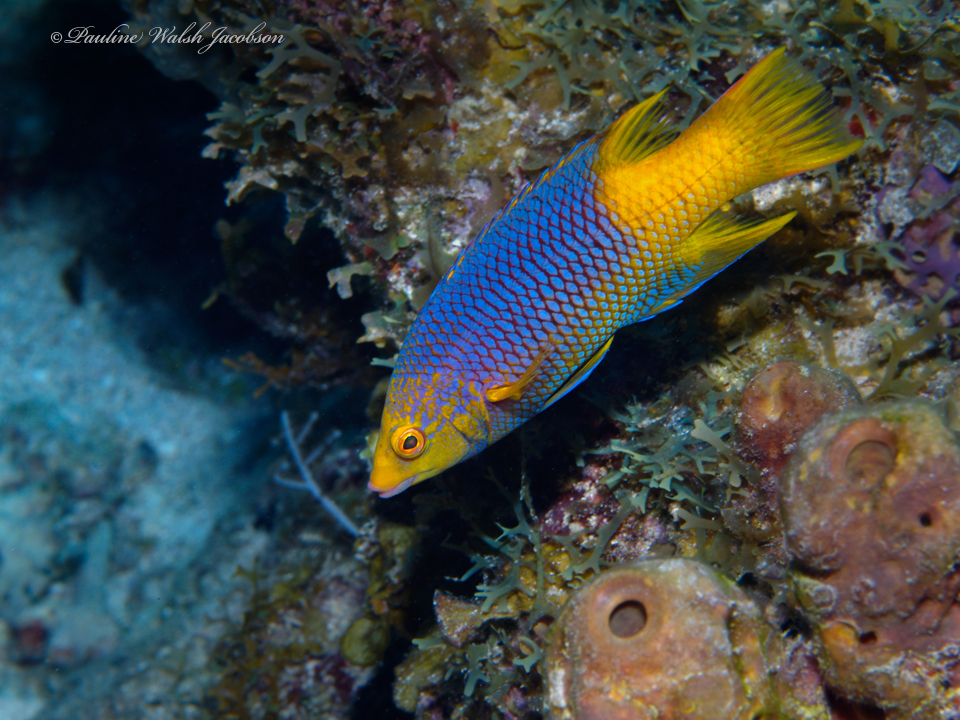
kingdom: Animalia
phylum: Chordata
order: Perciformes
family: Labridae
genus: Bodianus
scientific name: Bodianus rufus
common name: Spanish hogfish
